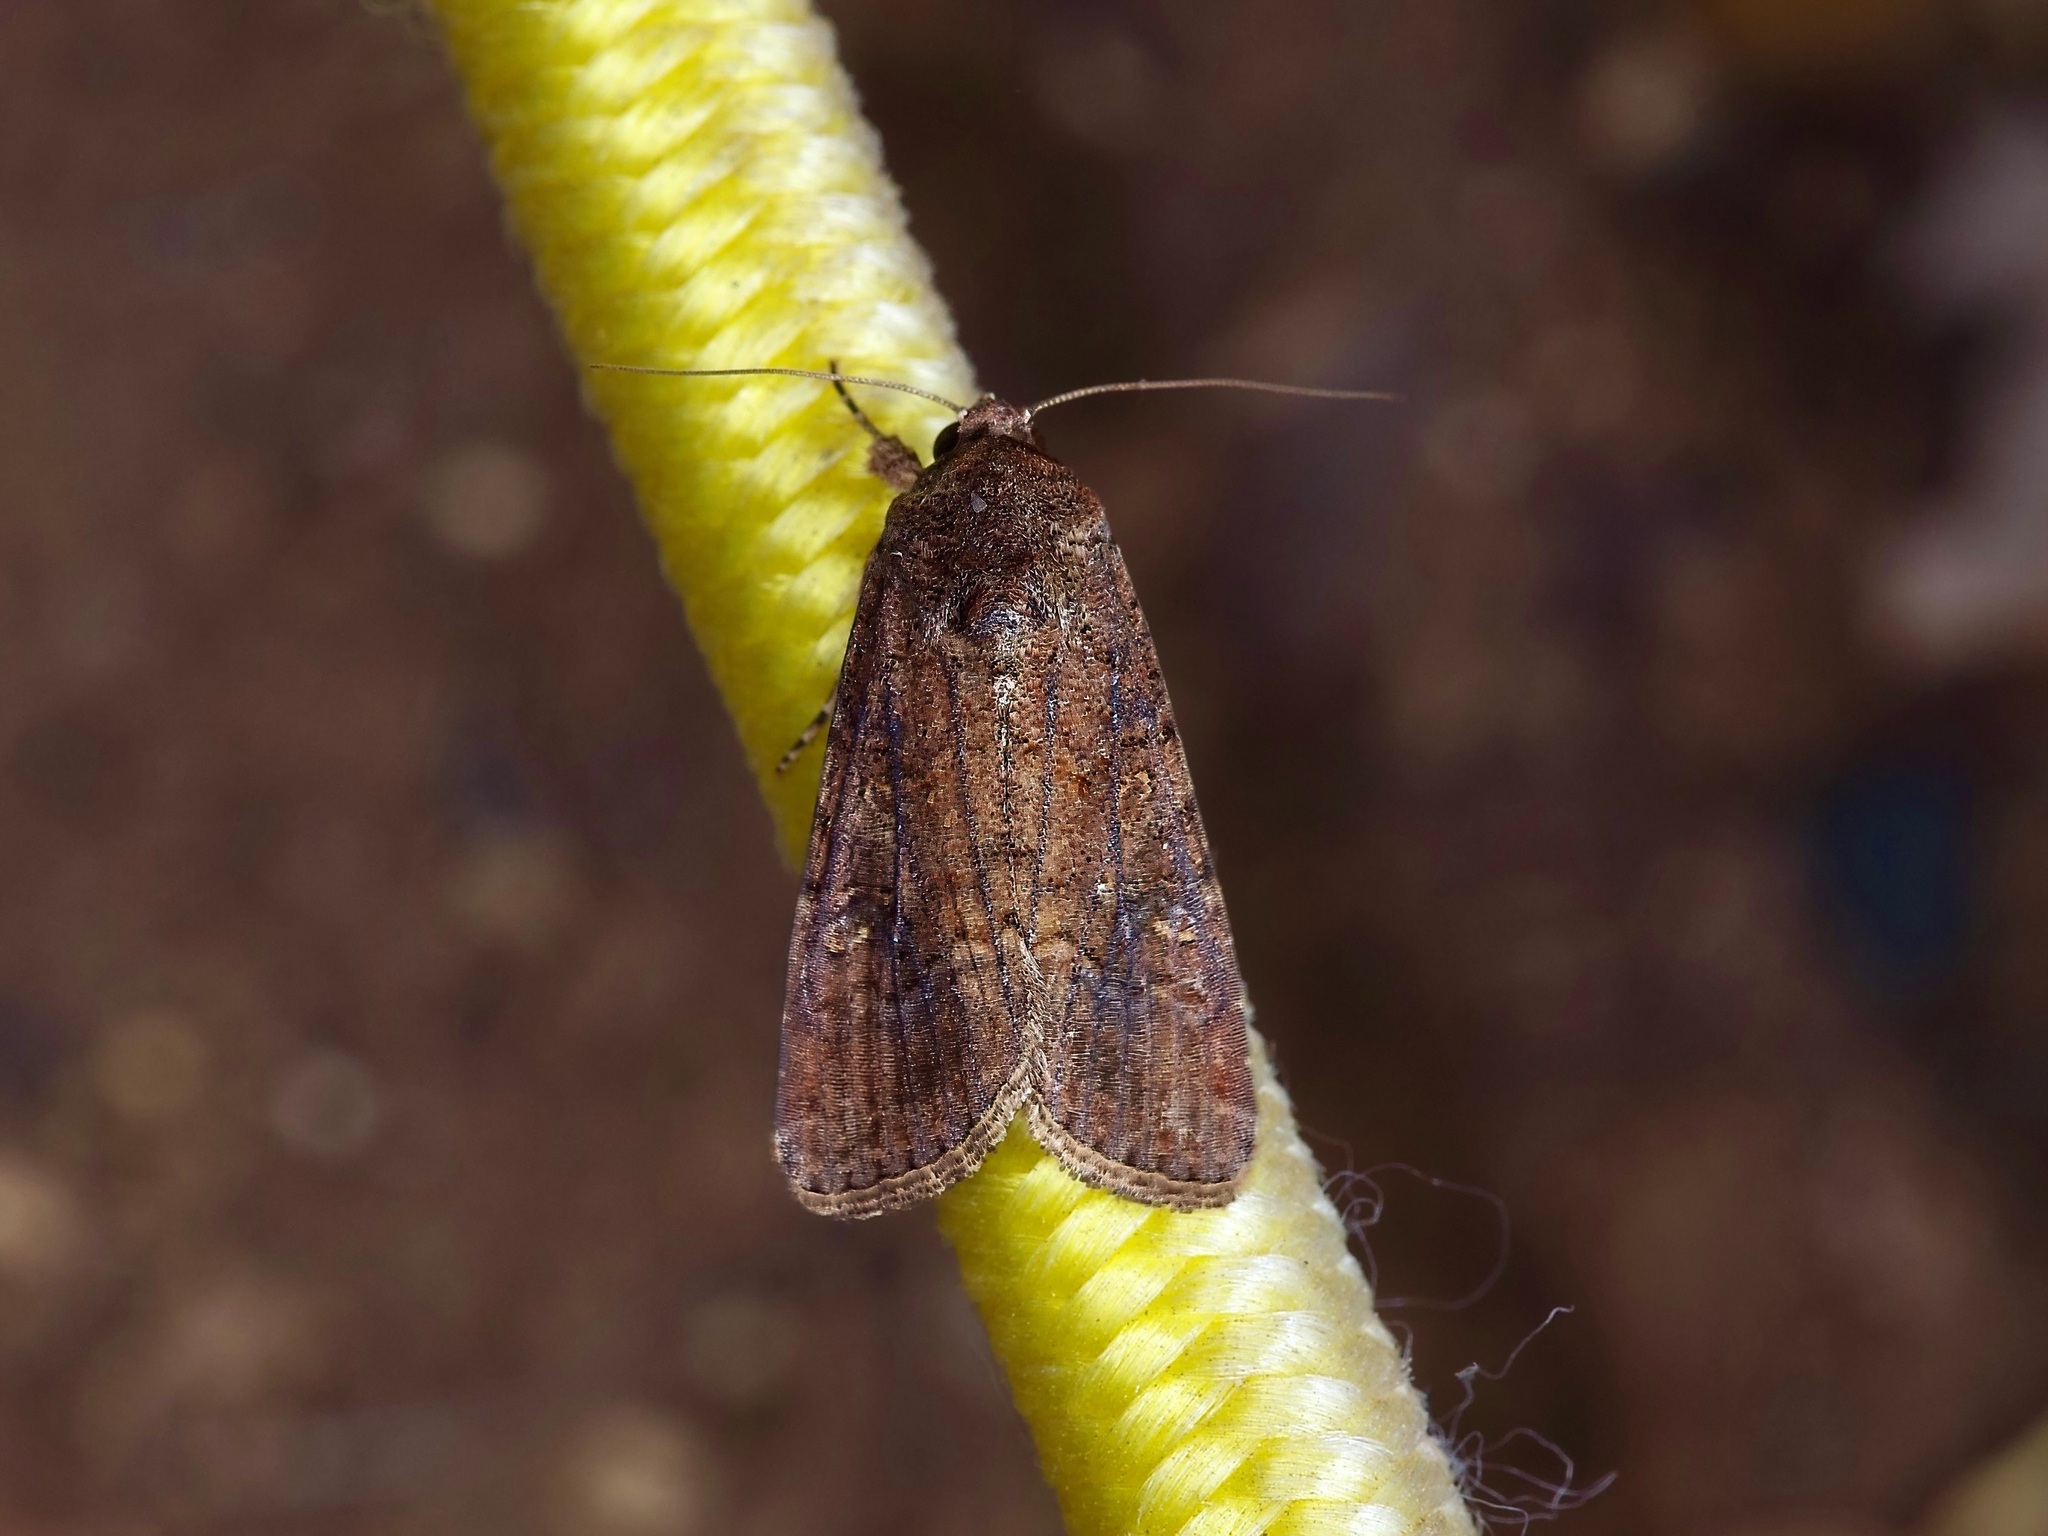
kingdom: Animalia
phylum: Arthropoda
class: Insecta
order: Lepidoptera
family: Noctuidae
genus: Spodoptera
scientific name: Spodoptera frugiperda
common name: Fall armyworm
